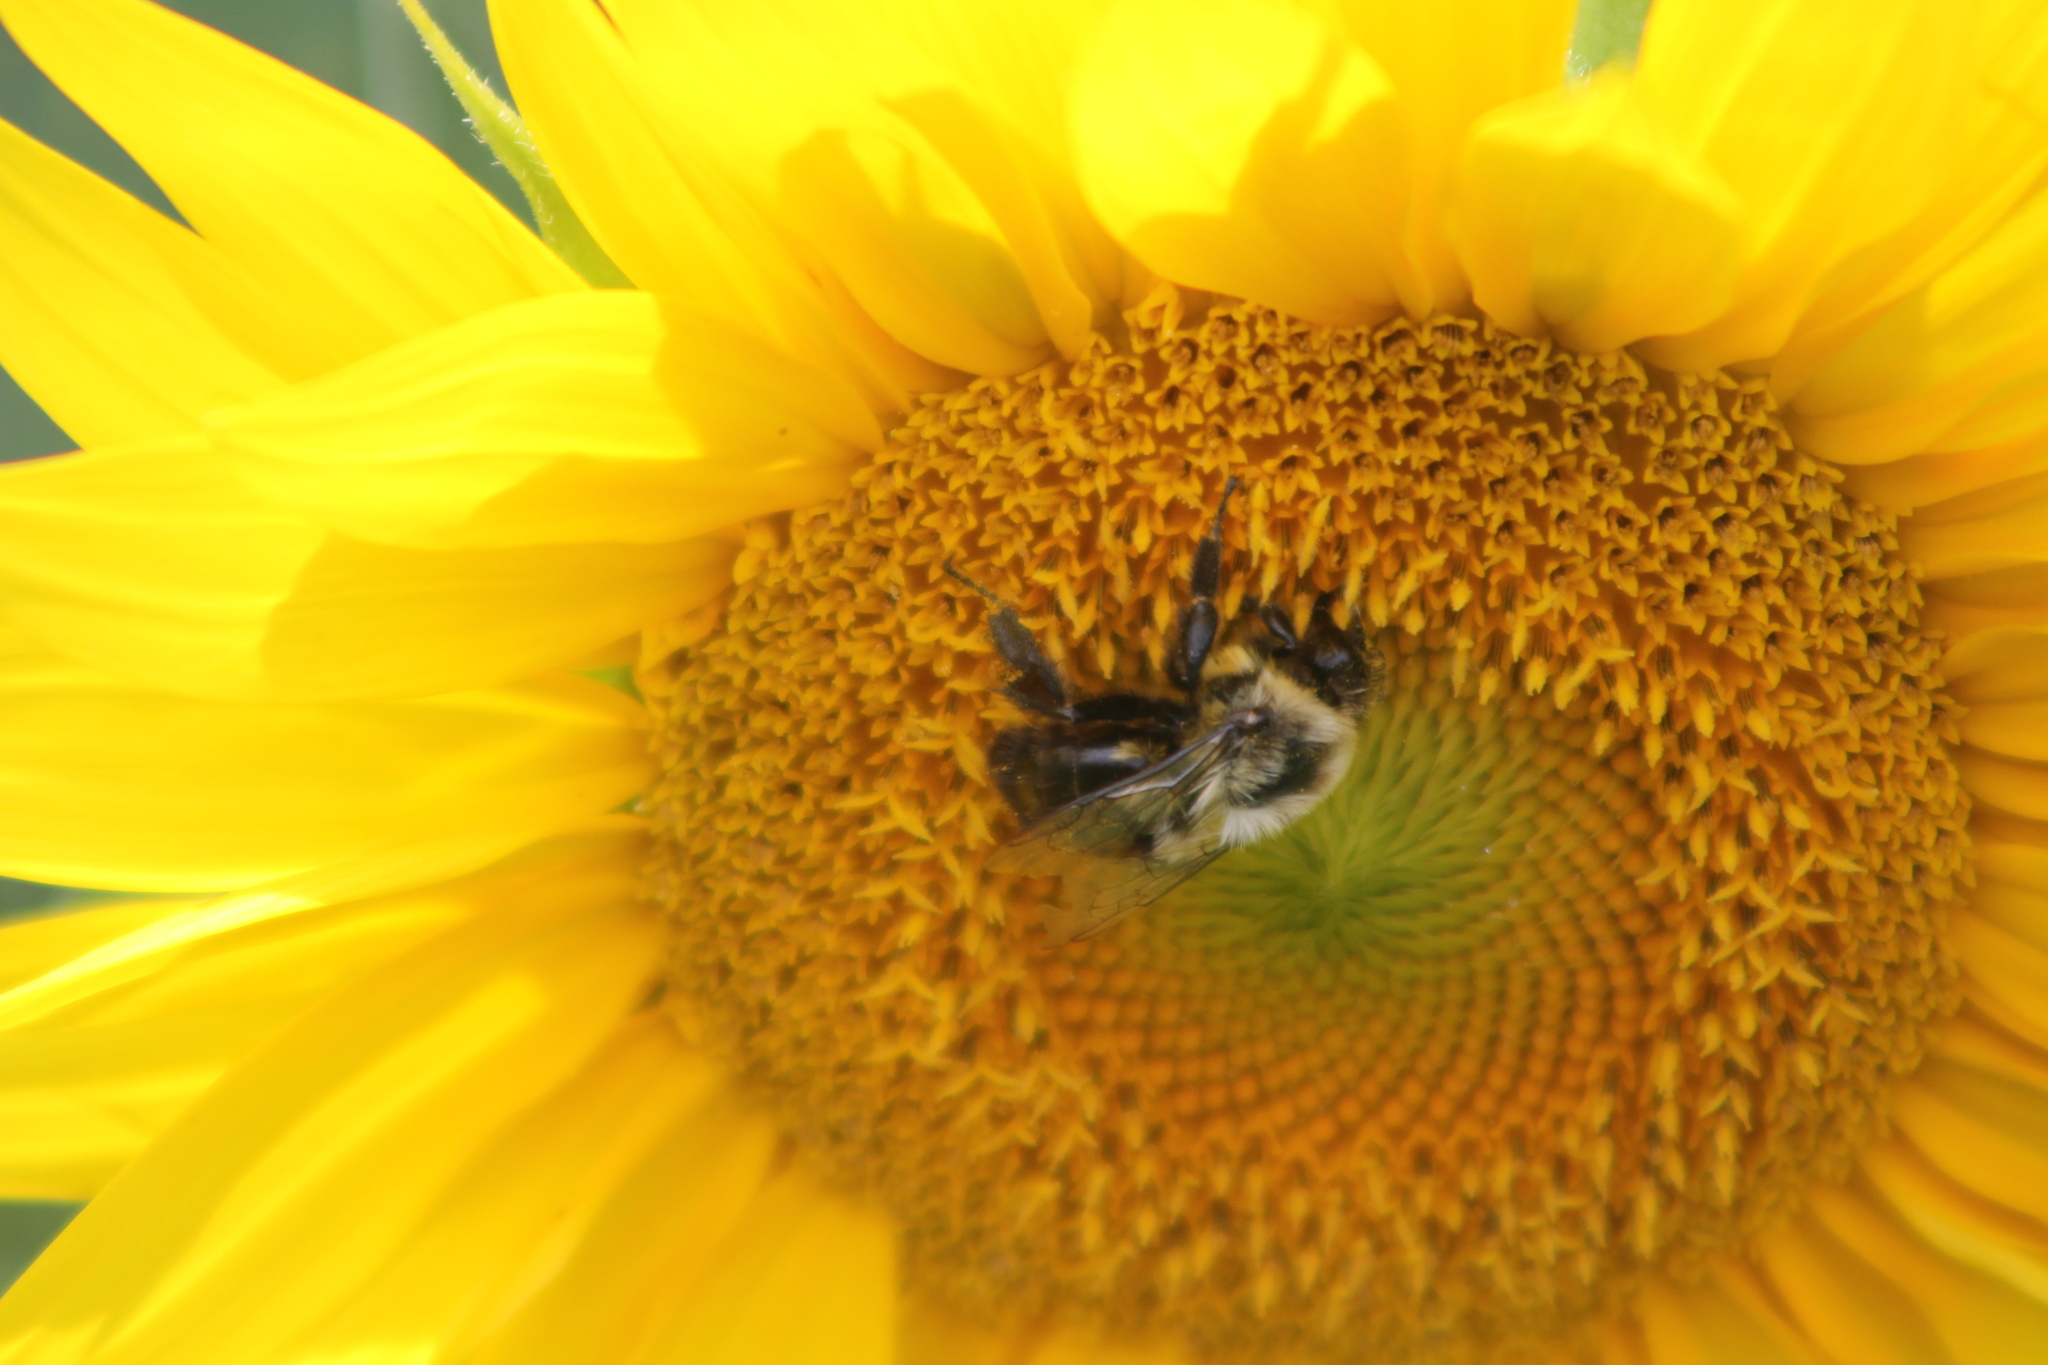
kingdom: Animalia
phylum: Arthropoda
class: Insecta
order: Hymenoptera
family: Apidae
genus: Bombus
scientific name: Bombus impatiens
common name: Common eastern bumble bee
